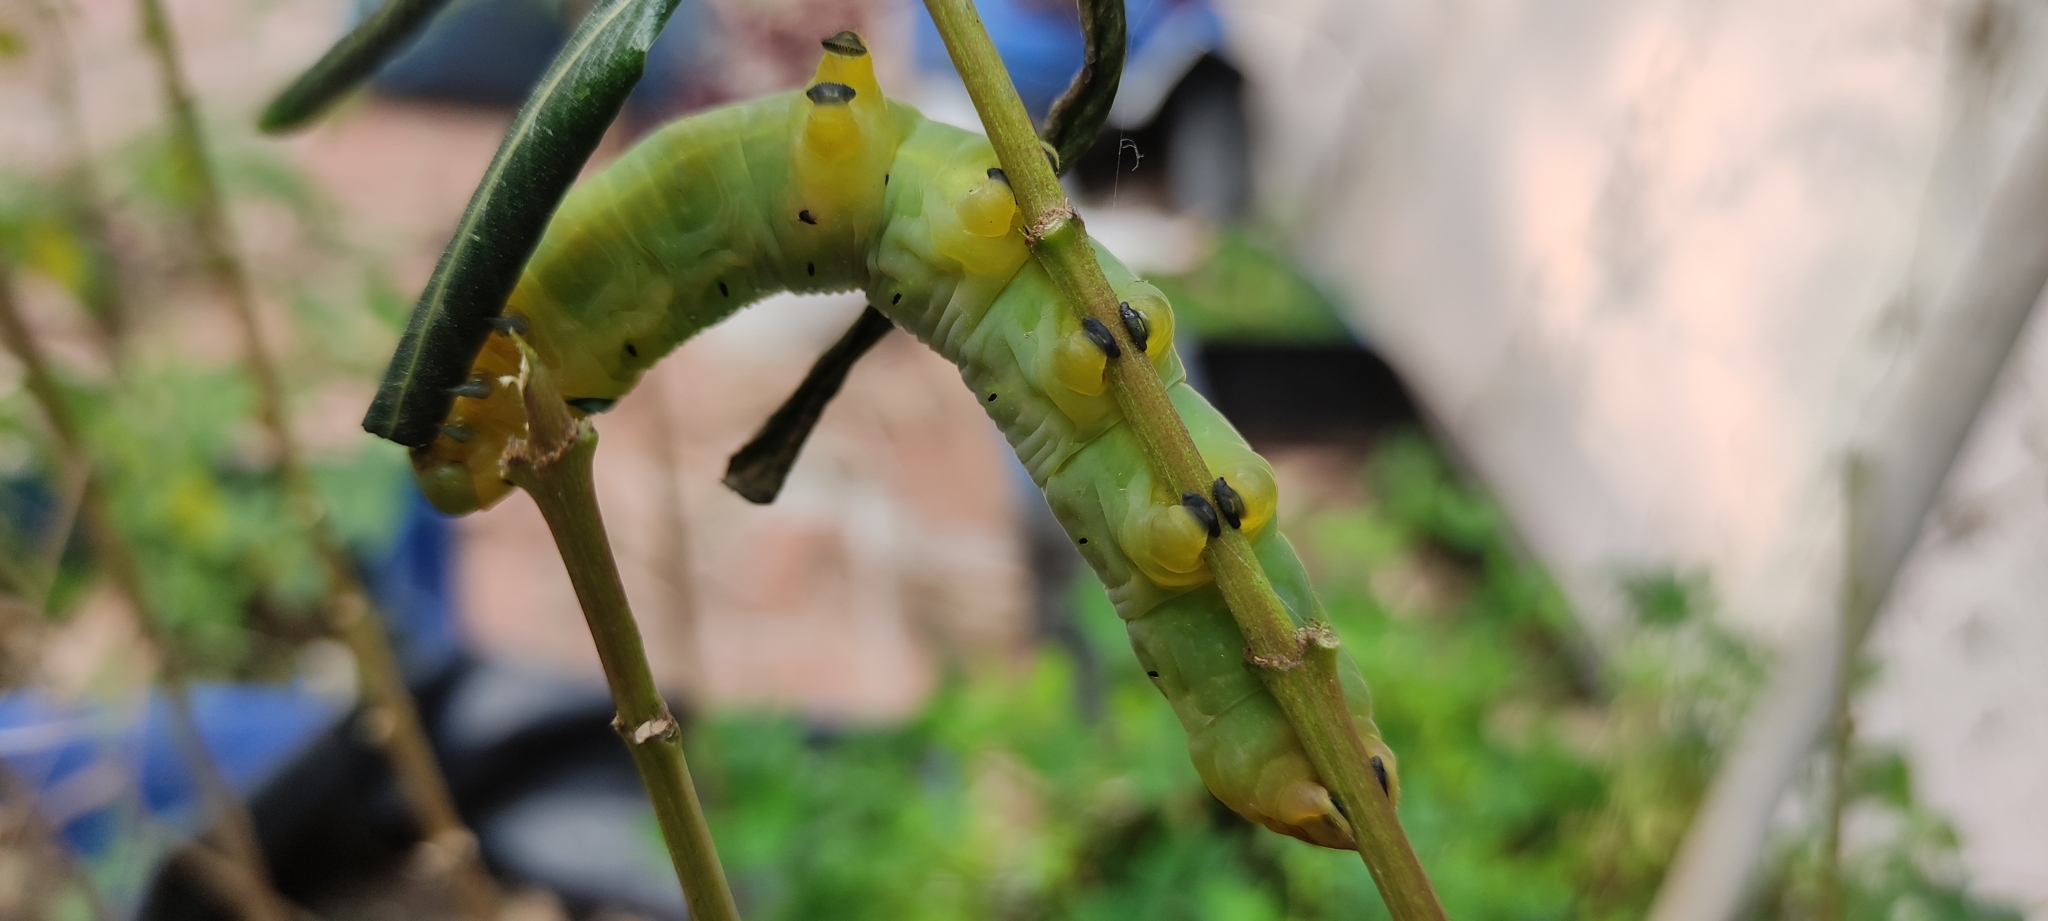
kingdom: Animalia
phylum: Arthropoda
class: Insecta
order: Lepidoptera
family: Sphingidae
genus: Daphnis
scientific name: Daphnis nerii
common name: Oleander hawk-moth
